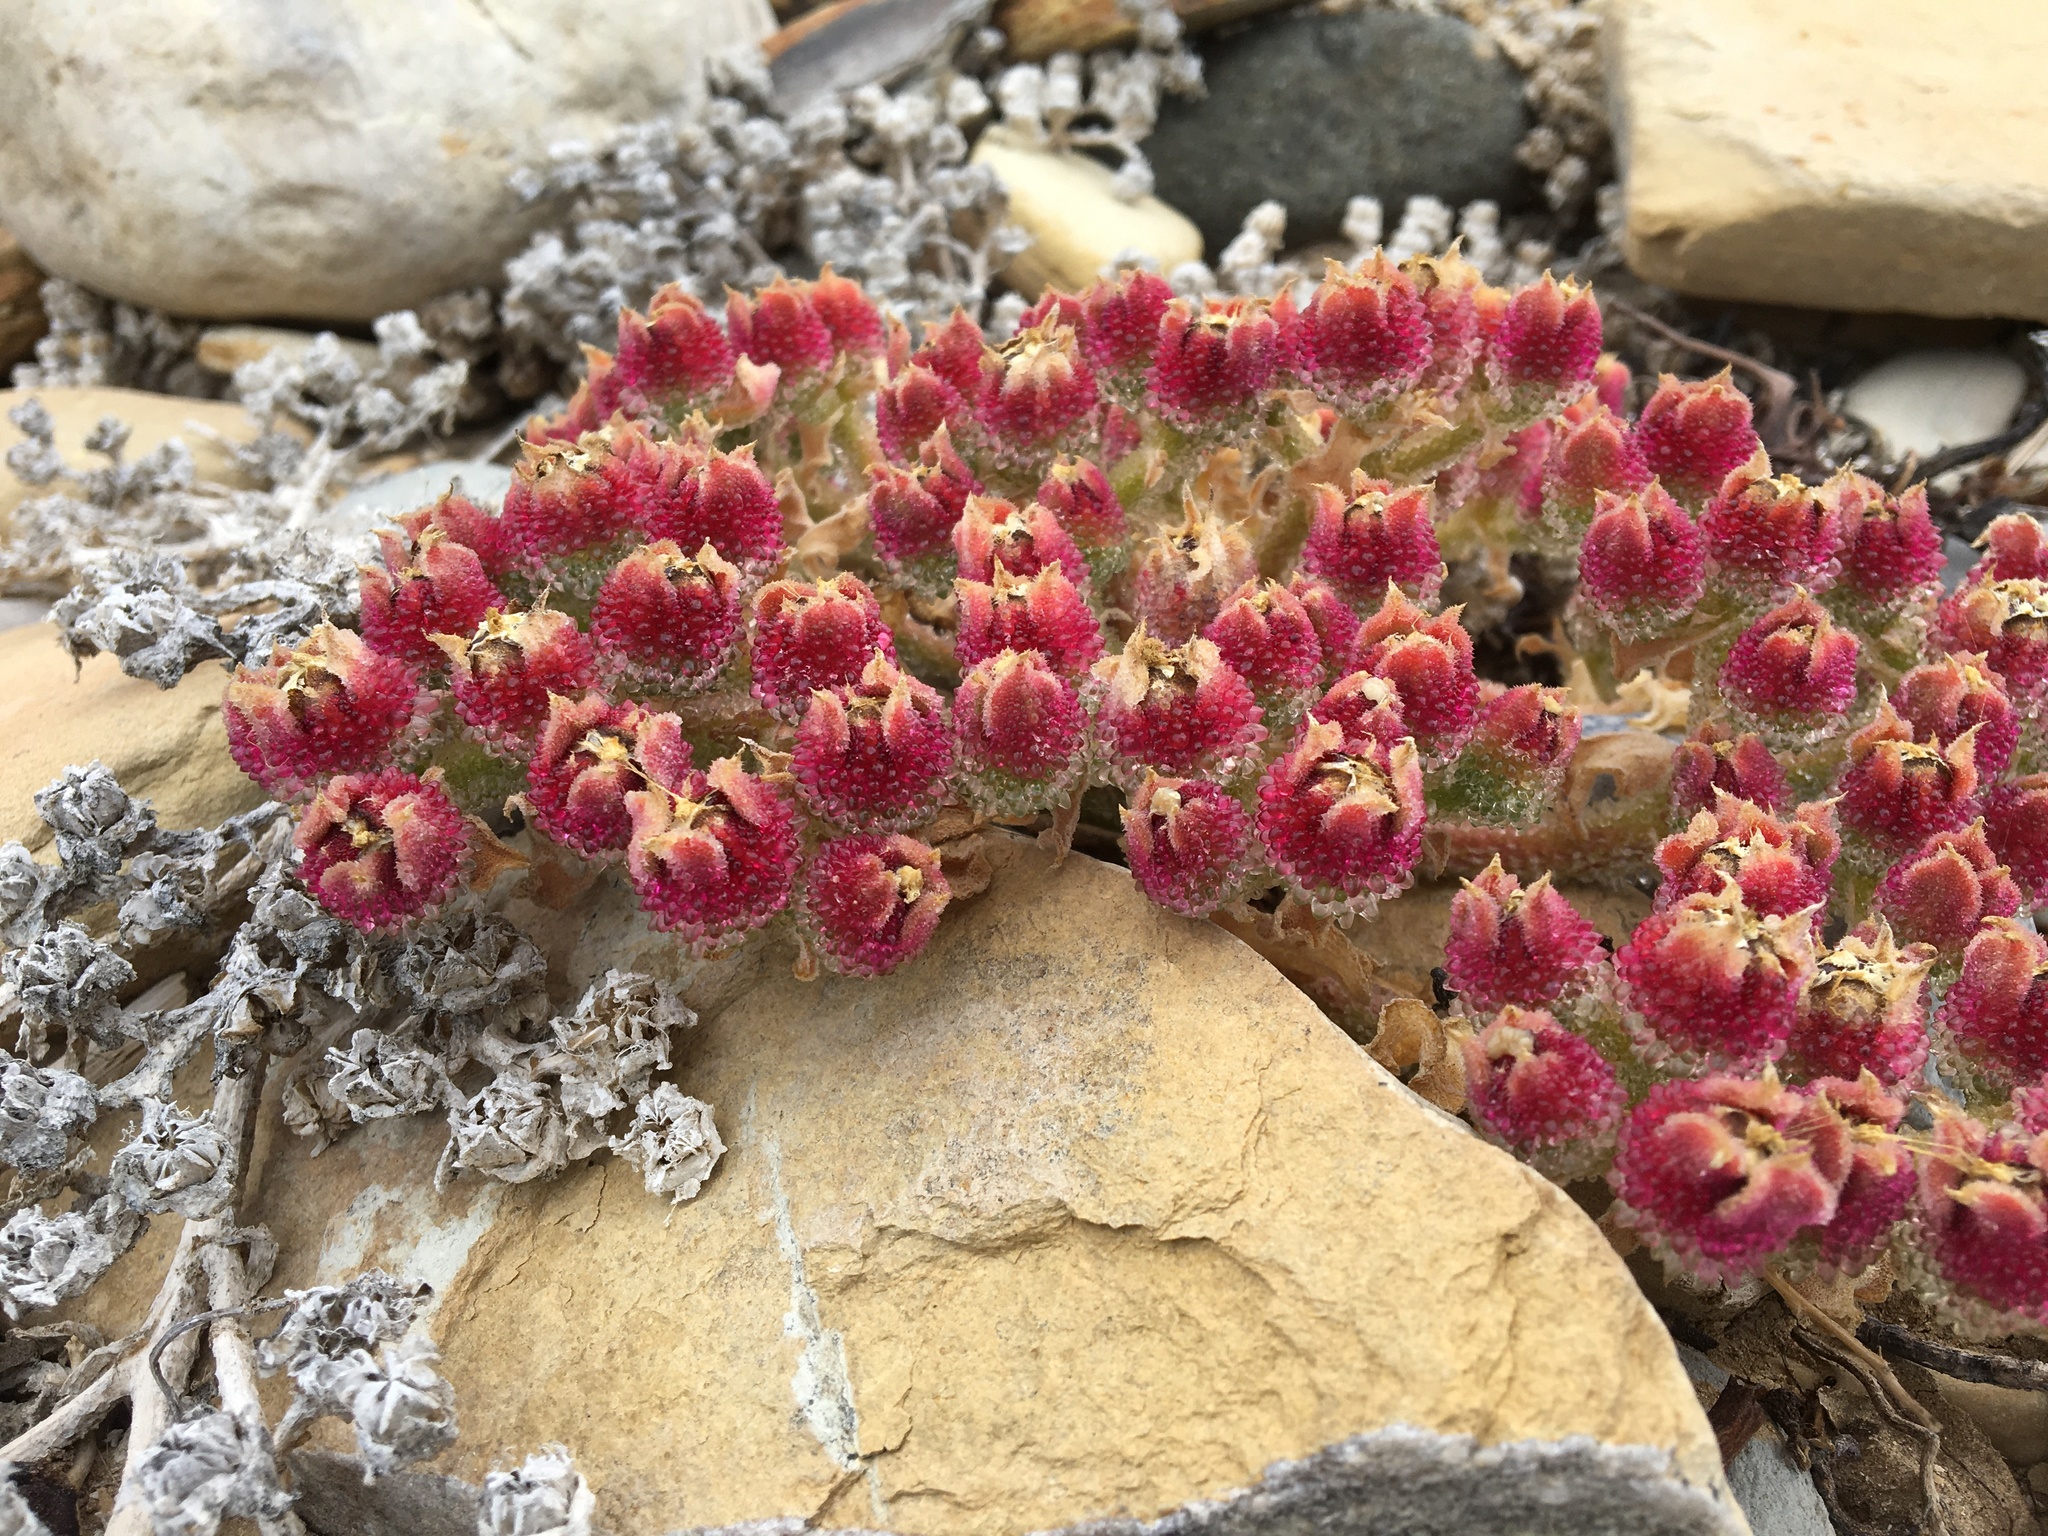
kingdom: Plantae
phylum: Tracheophyta
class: Magnoliopsida
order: Caryophyllales
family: Aizoaceae
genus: Mesembryanthemum
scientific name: Mesembryanthemum crystallinum
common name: Common iceplant
